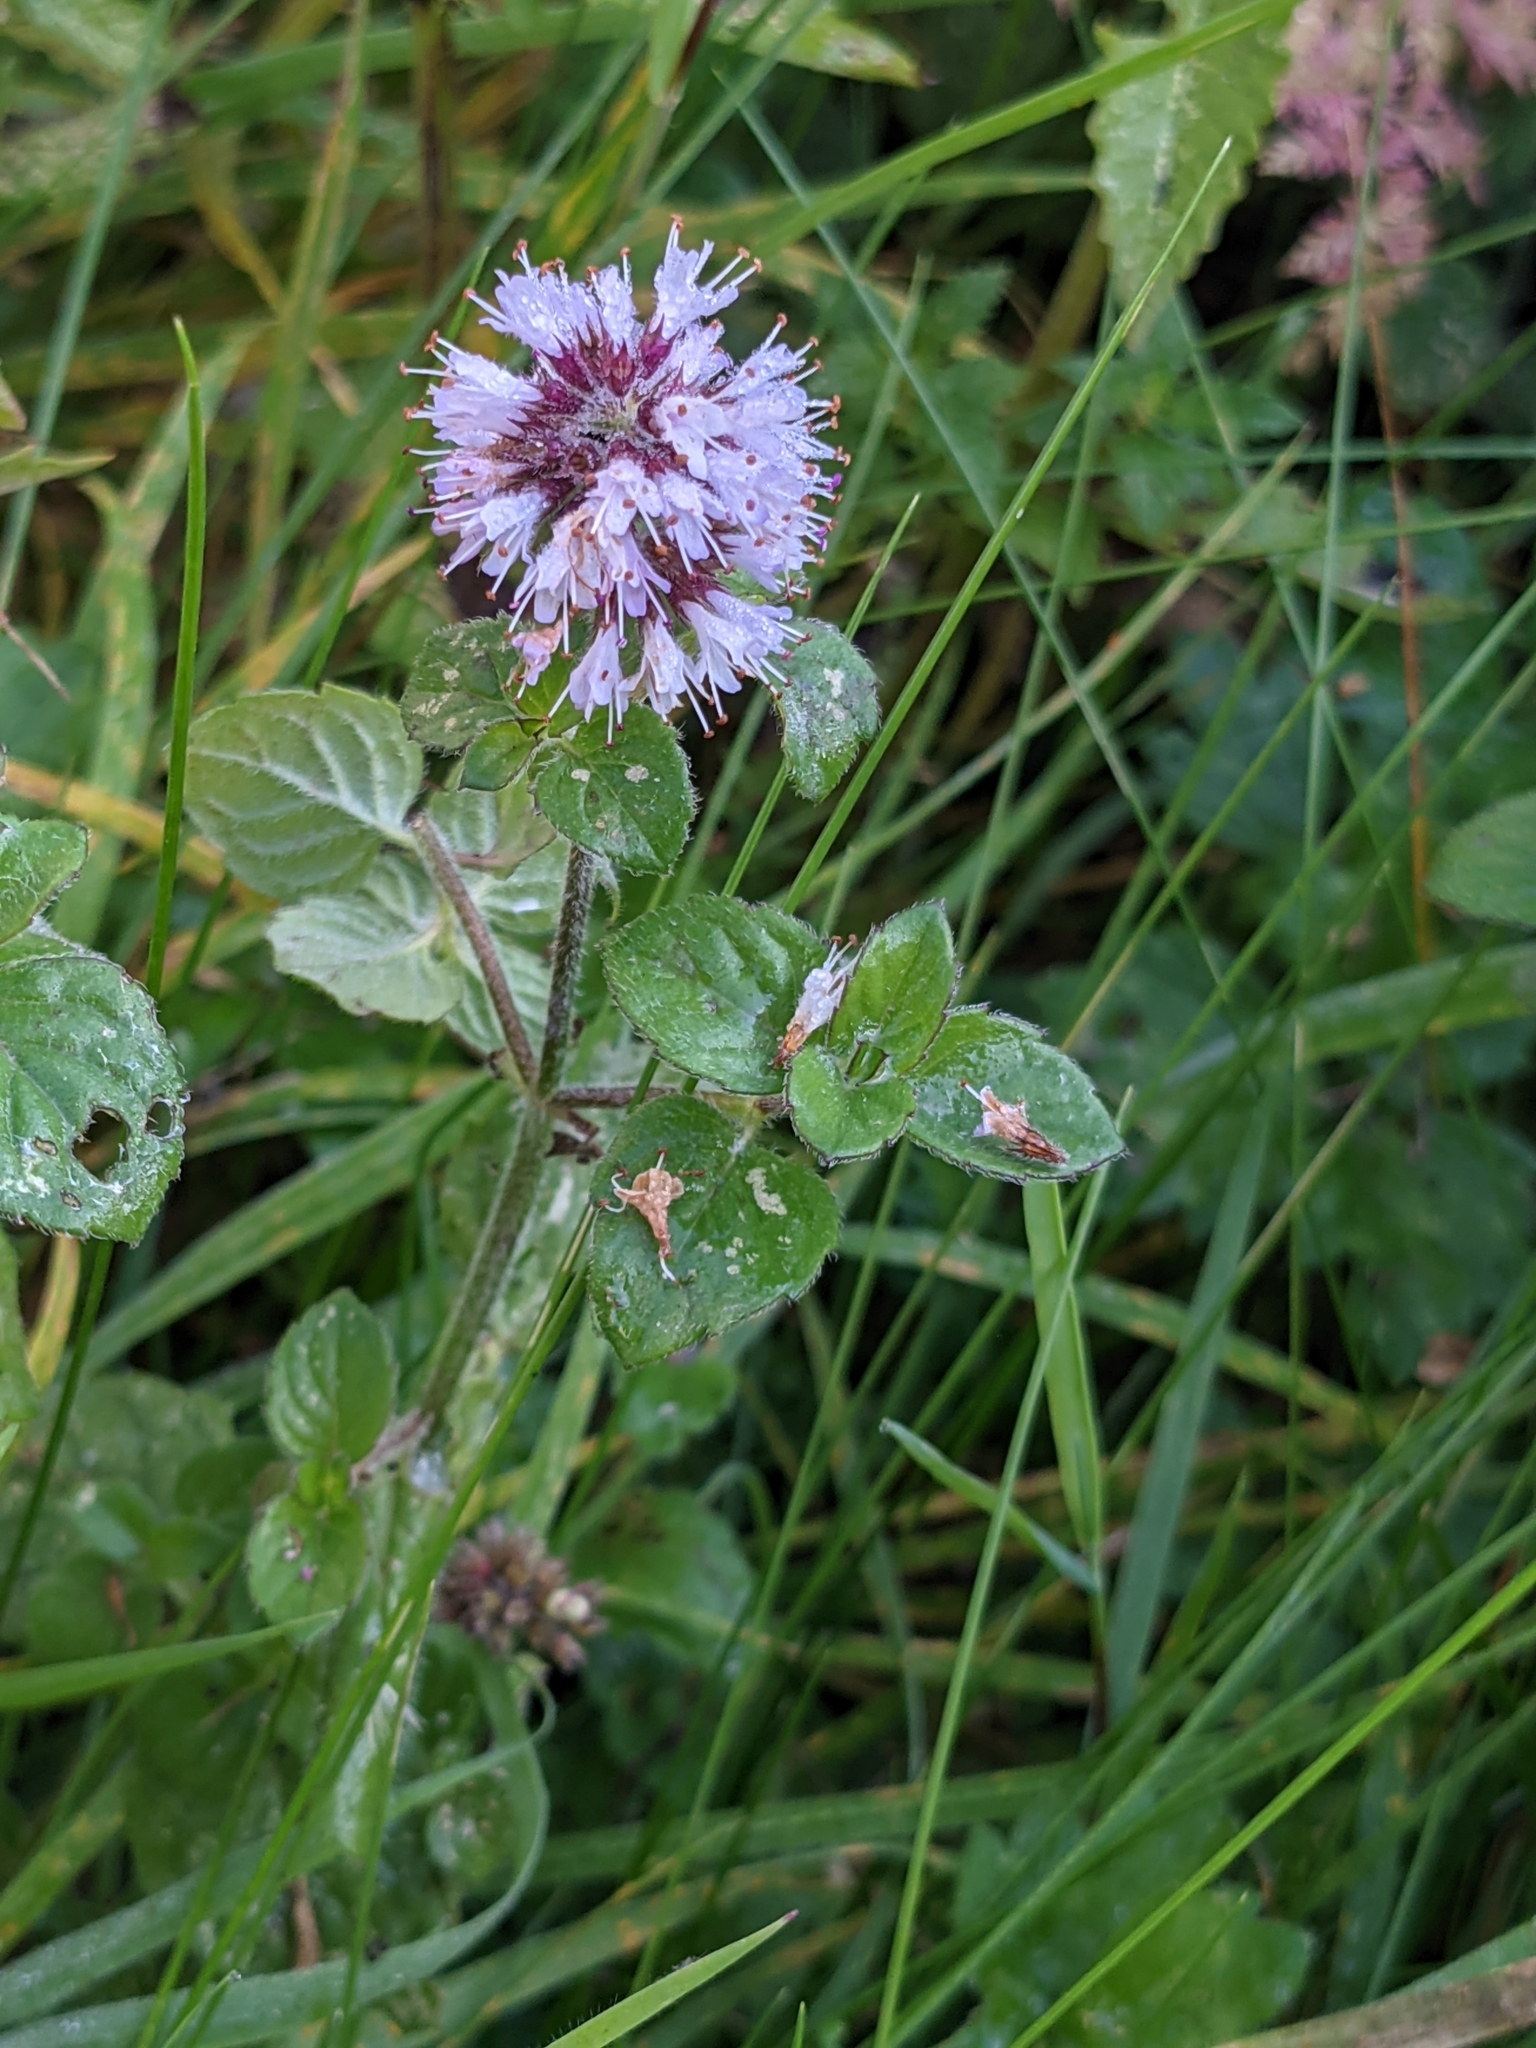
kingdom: Plantae
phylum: Tracheophyta
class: Magnoliopsida
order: Lamiales
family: Lamiaceae
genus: Mentha
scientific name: Mentha aquatica
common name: Water mint
